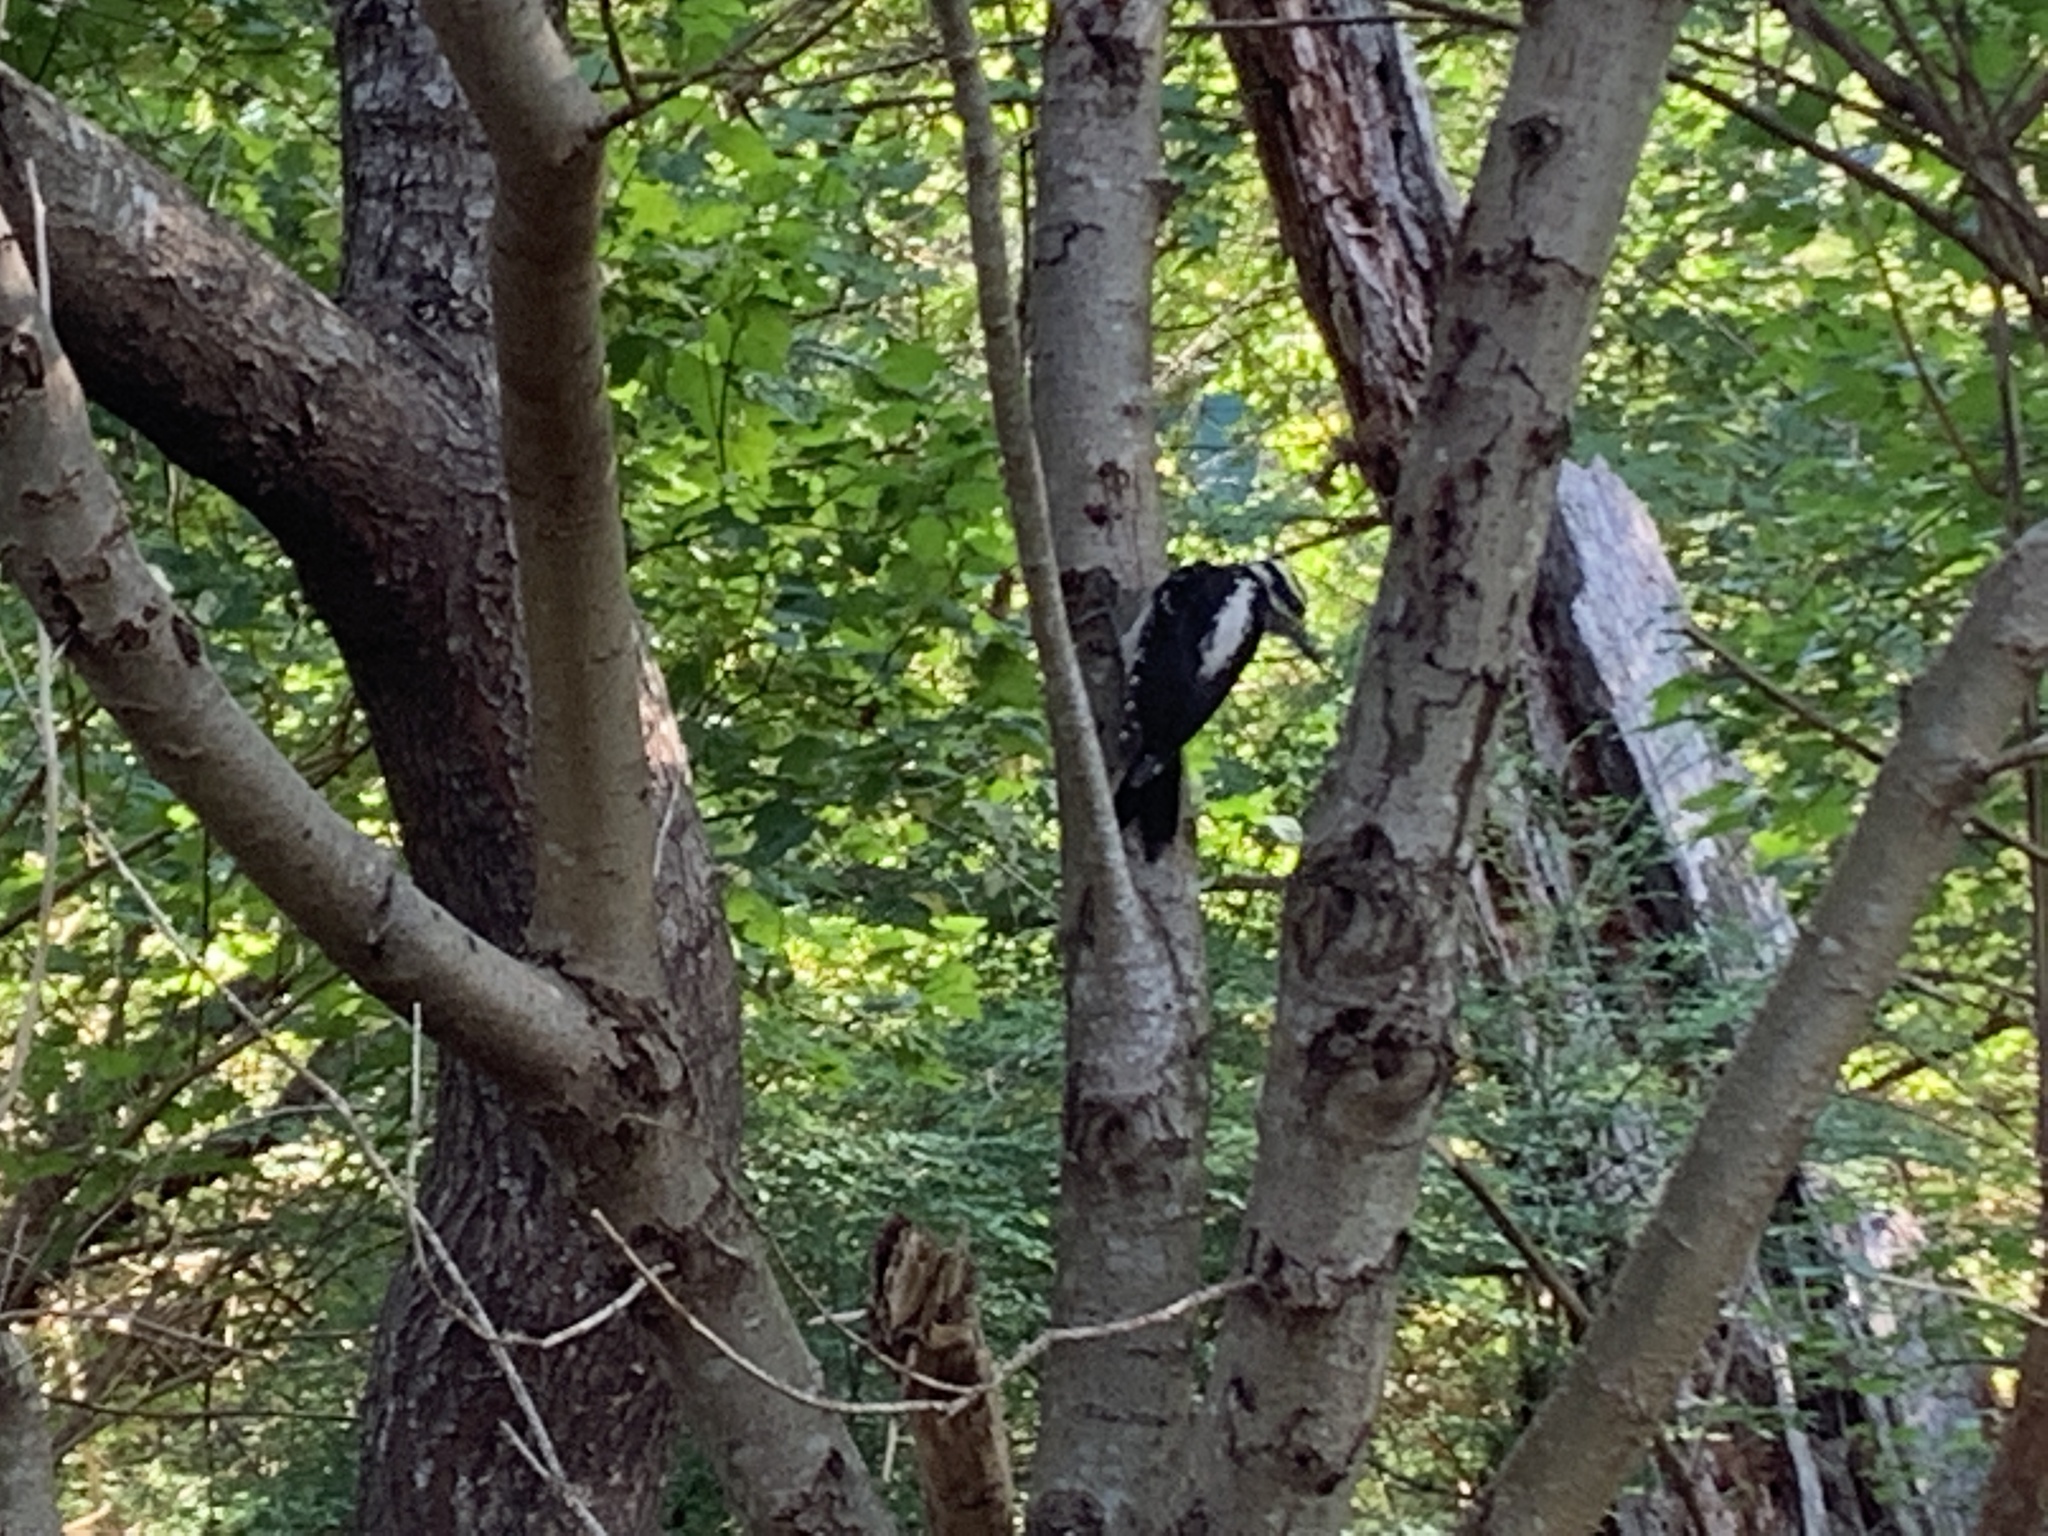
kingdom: Animalia
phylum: Chordata
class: Aves
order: Piciformes
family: Picidae
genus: Leuconotopicus
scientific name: Leuconotopicus villosus
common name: Hairy woodpecker
